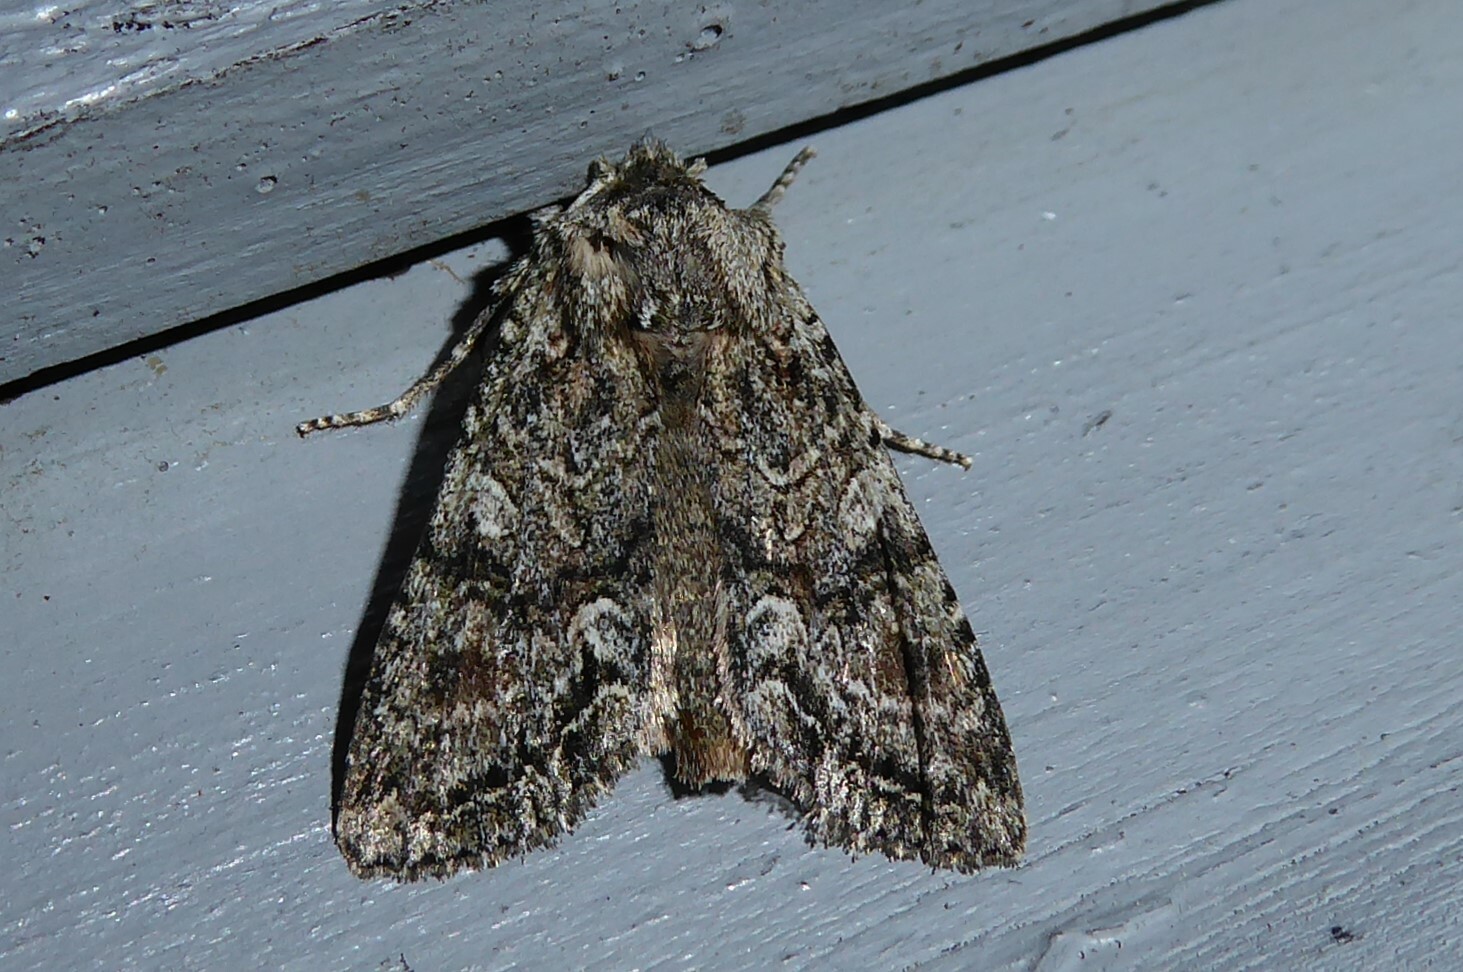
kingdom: Animalia
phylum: Arthropoda
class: Insecta
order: Lepidoptera
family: Noctuidae
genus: Ichneutica
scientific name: Ichneutica mutans
